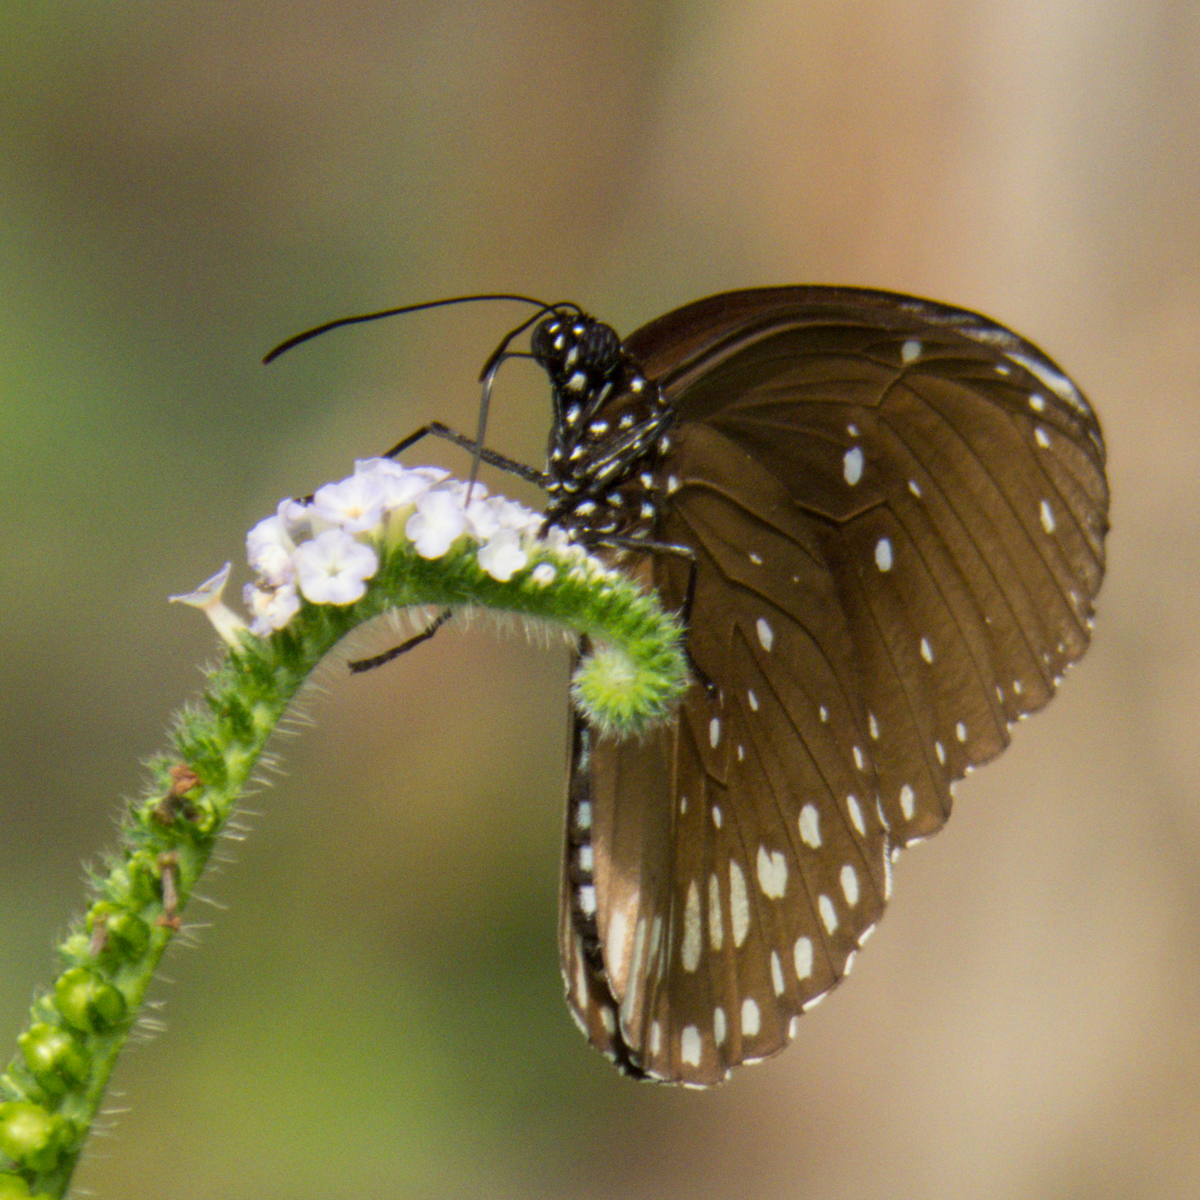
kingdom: Animalia
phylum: Arthropoda
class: Insecta
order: Lepidoptera
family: Nymphalidae
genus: Euploea
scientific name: Euploea core
